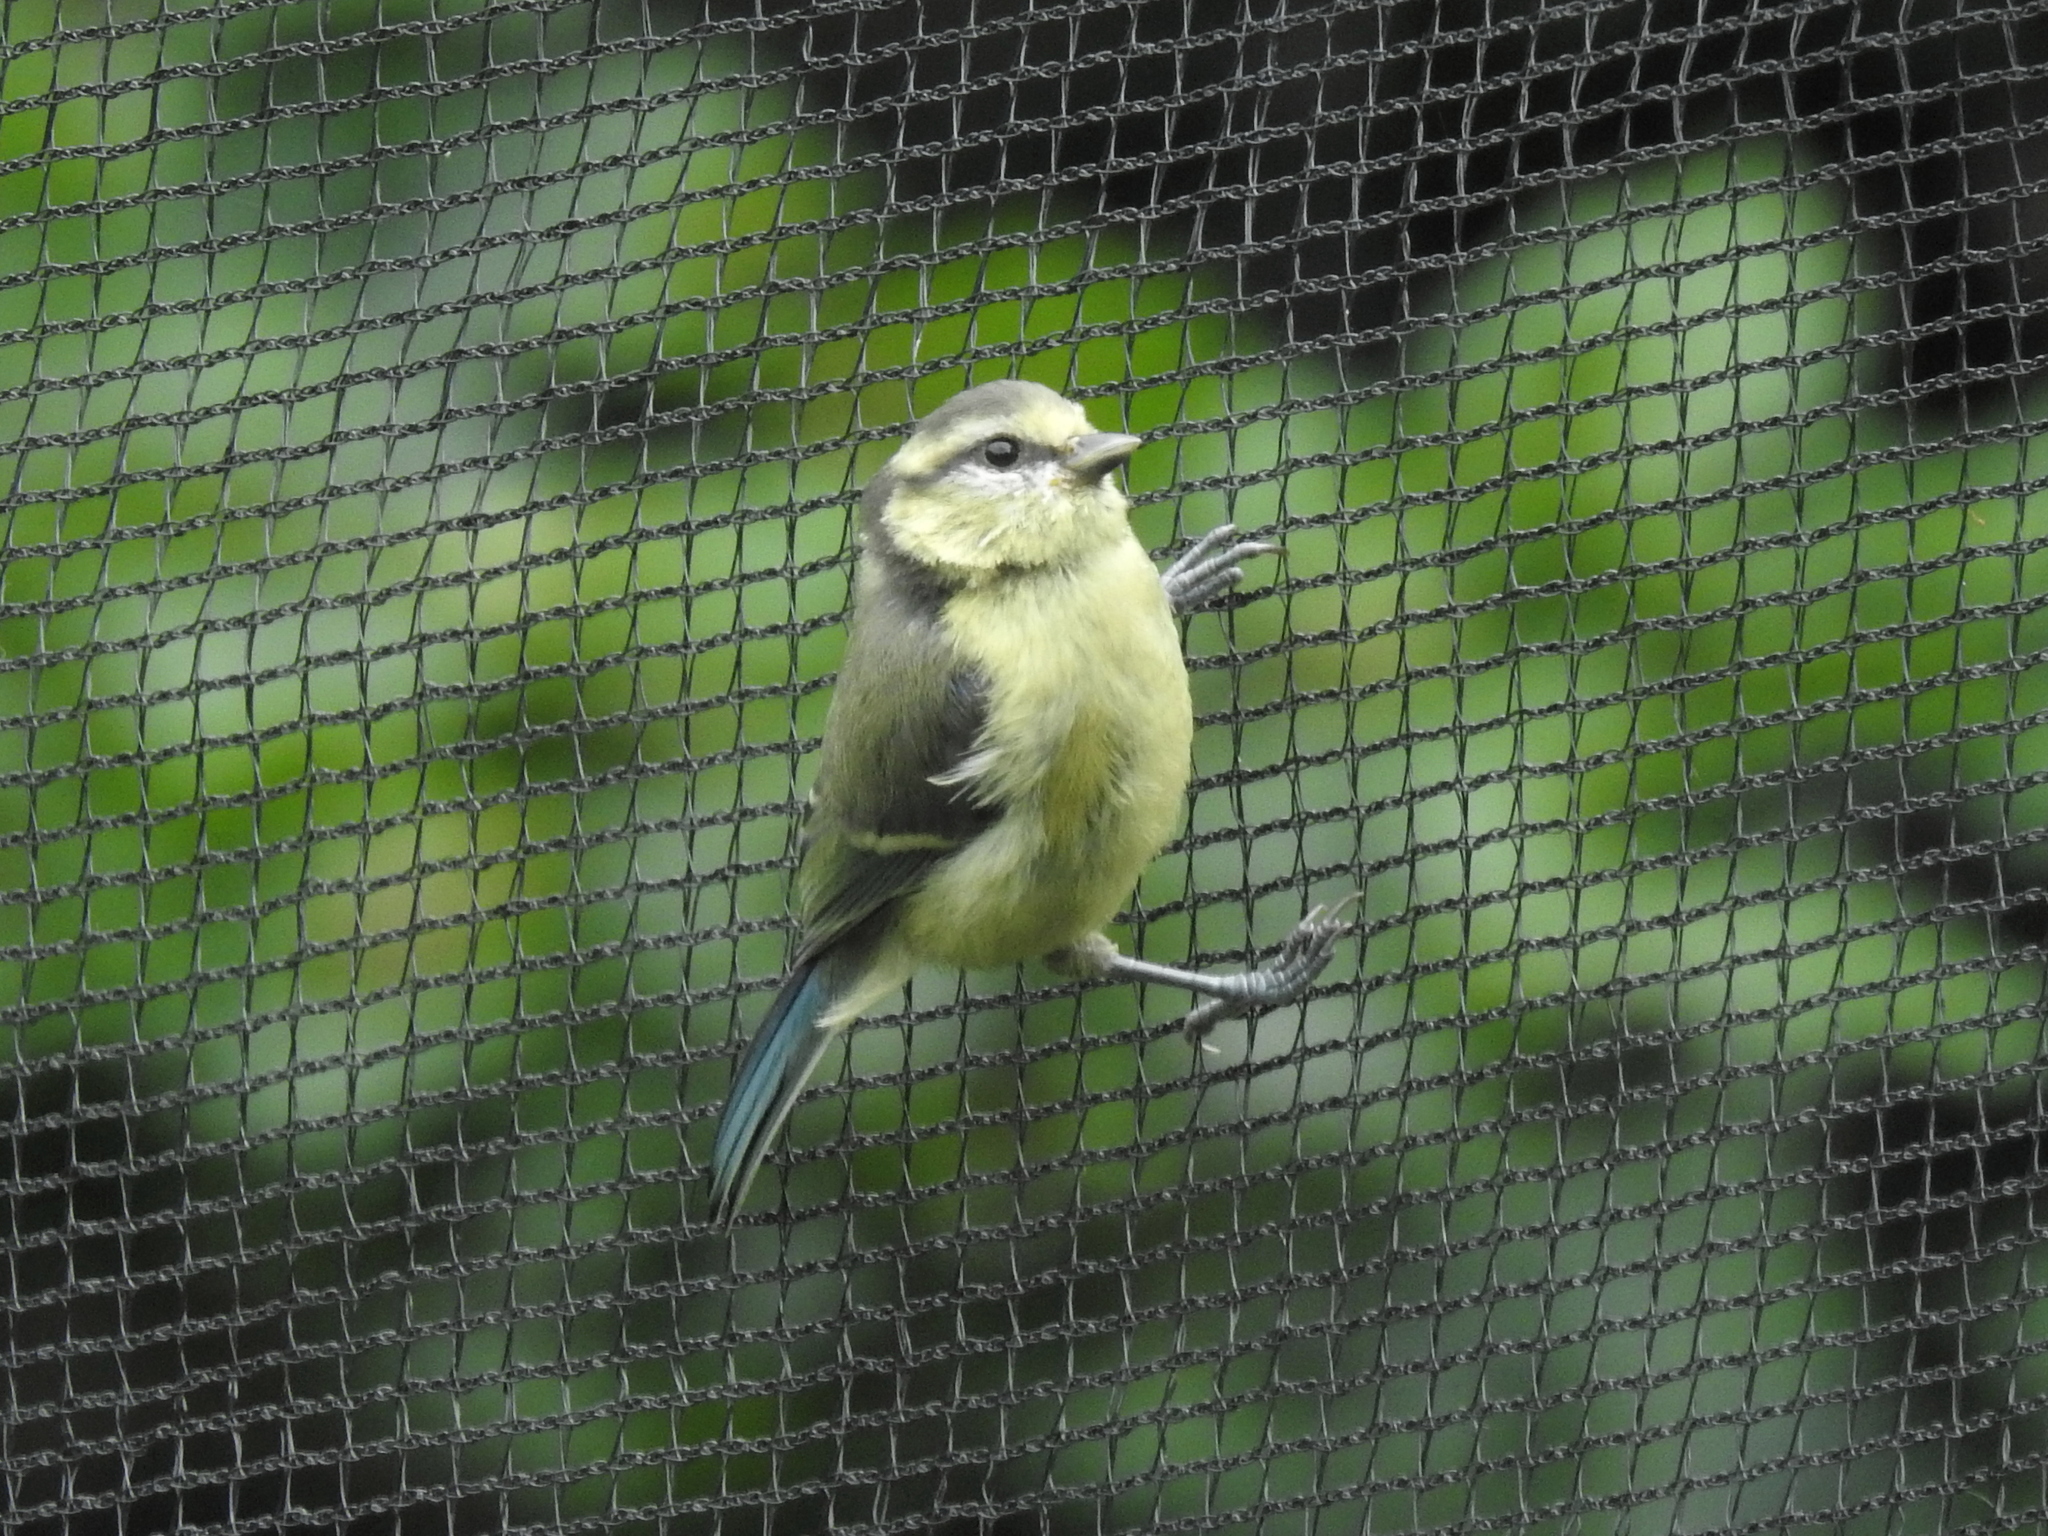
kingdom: Animalia
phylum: Chordata
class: Aves
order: Passeriformes
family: Paridae
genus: Cyanistes
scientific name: Cyanistes caeruleus
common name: Eurasian blue tit
